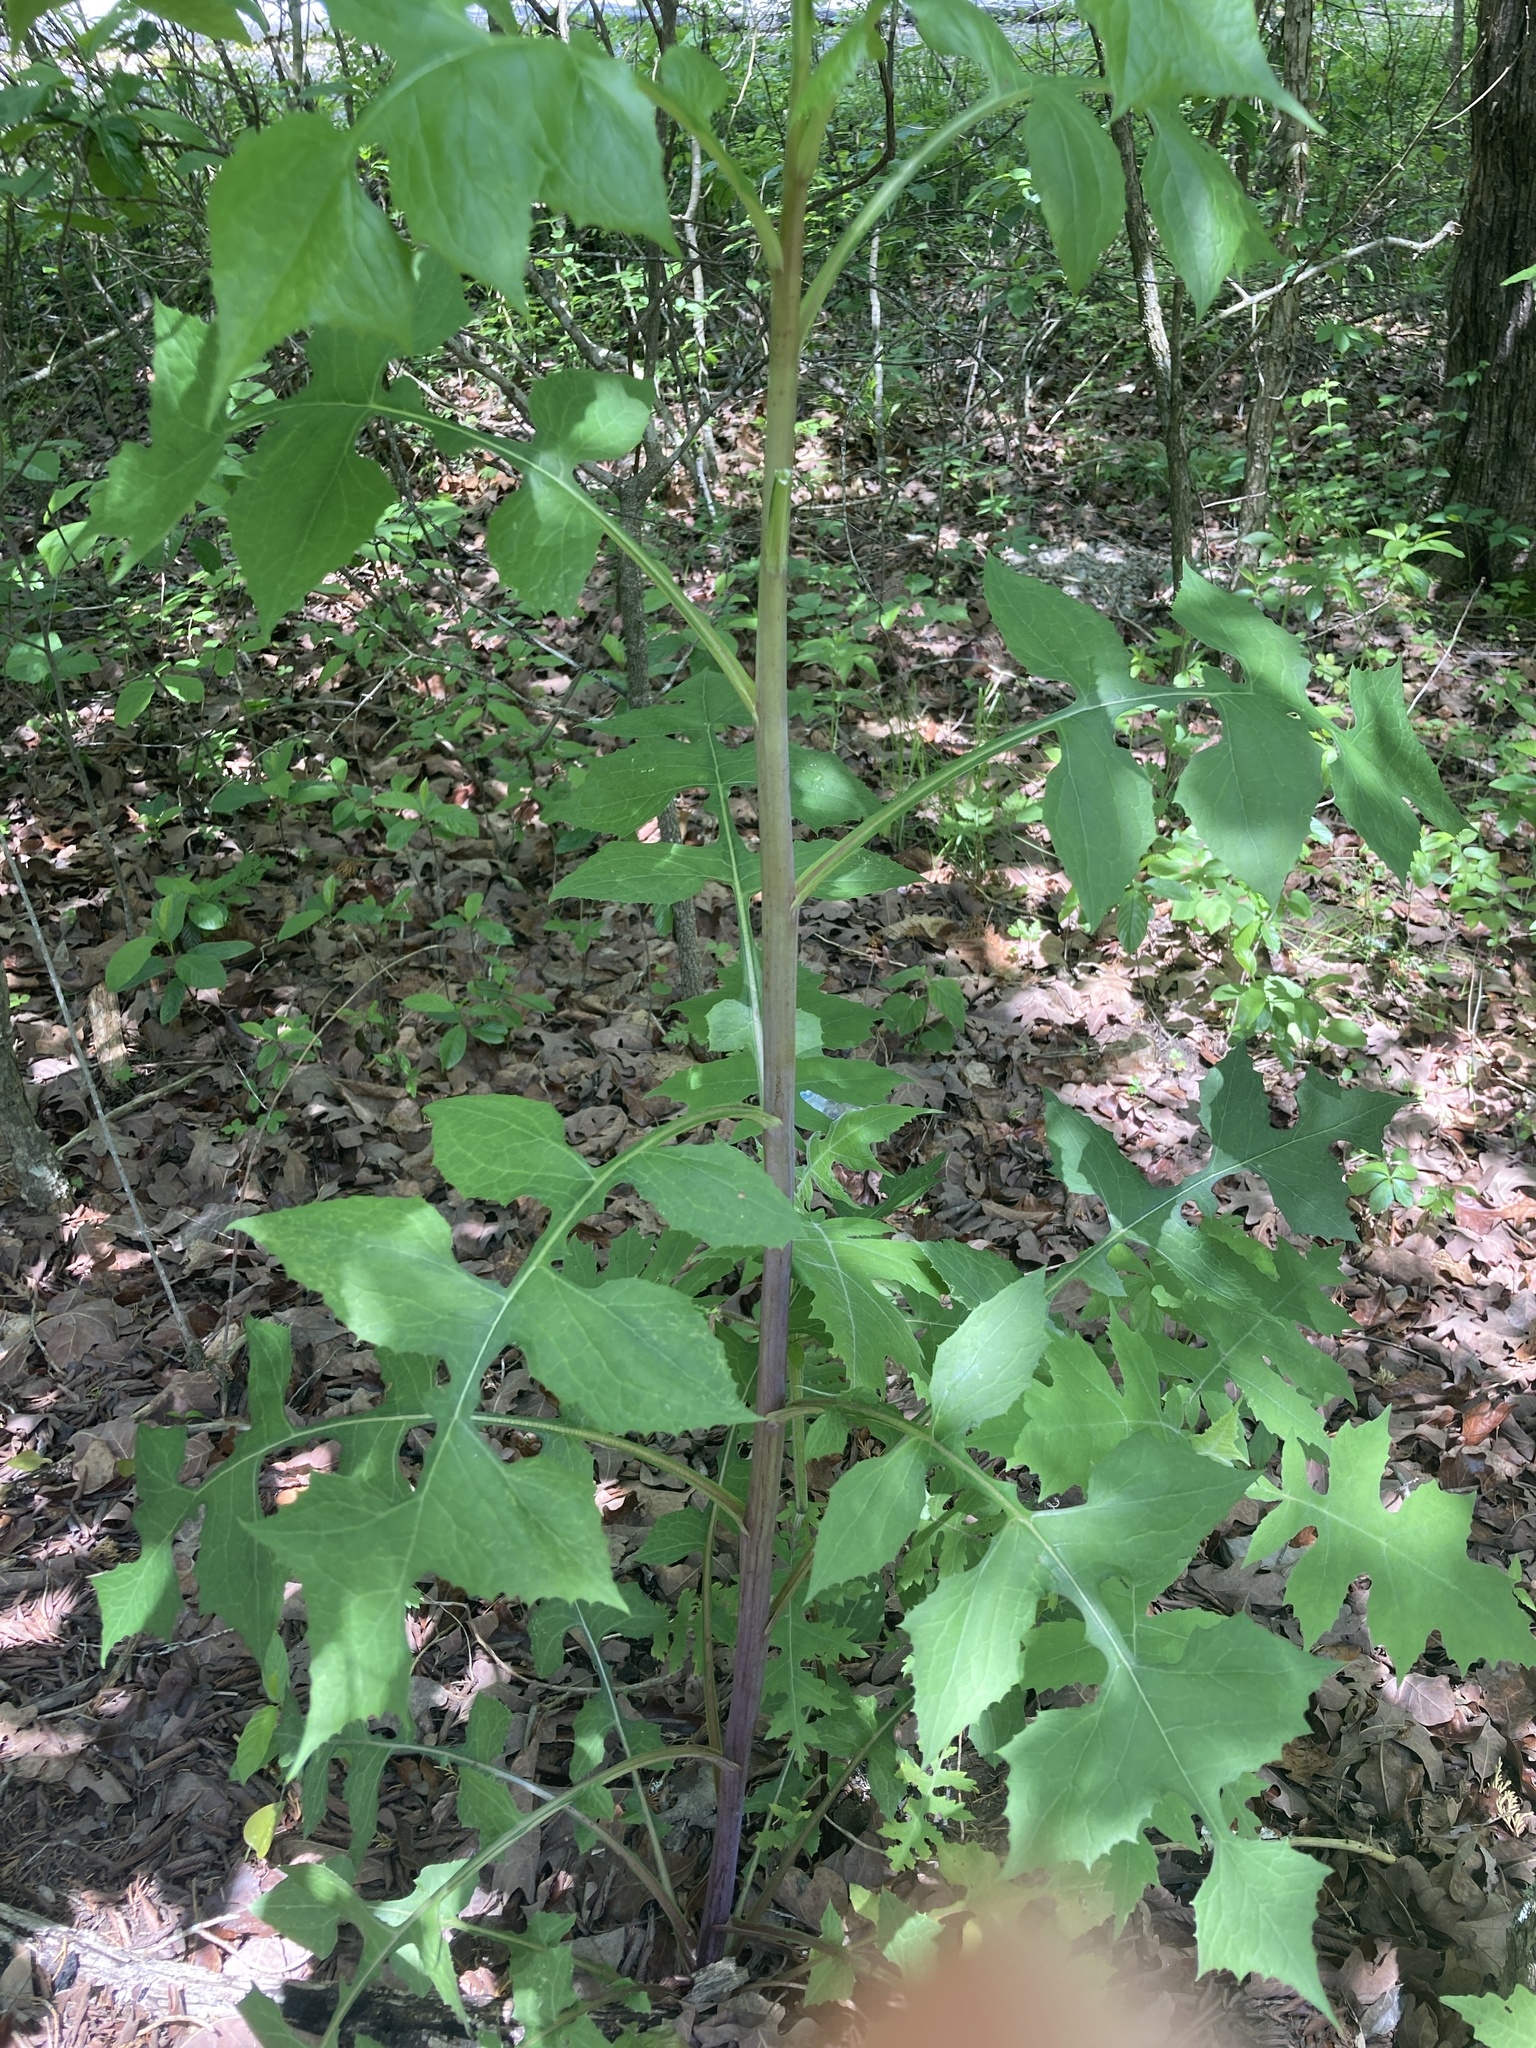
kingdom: Plantae
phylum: Tracheophyta
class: Magnoliopsida
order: Asterales
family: Asteraceae
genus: Lactuca
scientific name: Lactuca floridana
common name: Woodland lettuce
